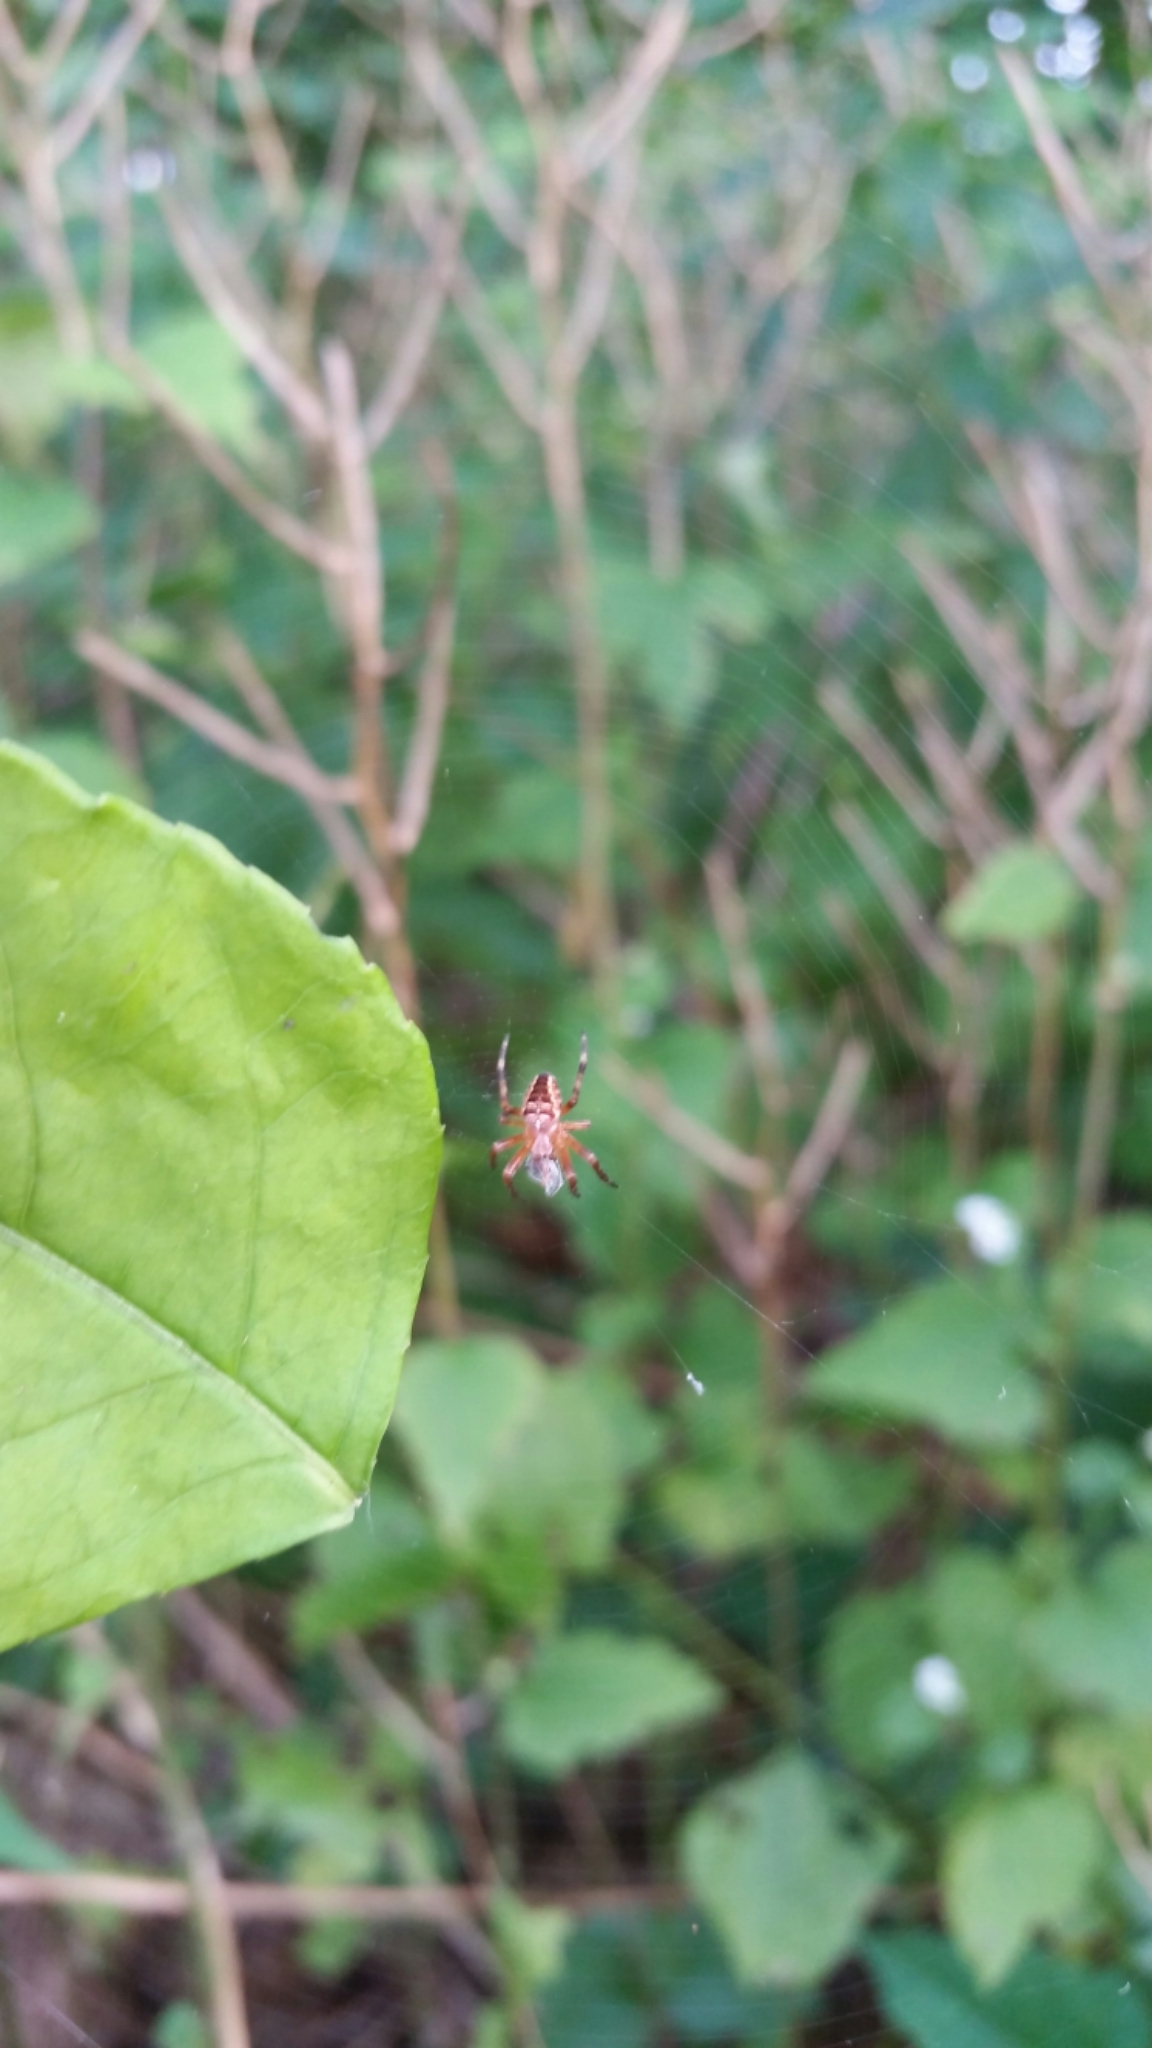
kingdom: Animalia
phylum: Arthropoda
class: Arachnida
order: Araneae
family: Araneidae
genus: Araneus
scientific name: Araneus diadematus
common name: Cross orbweaver
